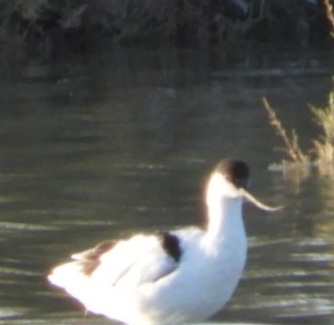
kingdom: Animalia
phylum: Chordata
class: Aves
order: Charadriiformes
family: Recurvirostridae
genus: Recurvirostra
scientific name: Recurvirostra avosetta
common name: Pied avocet
